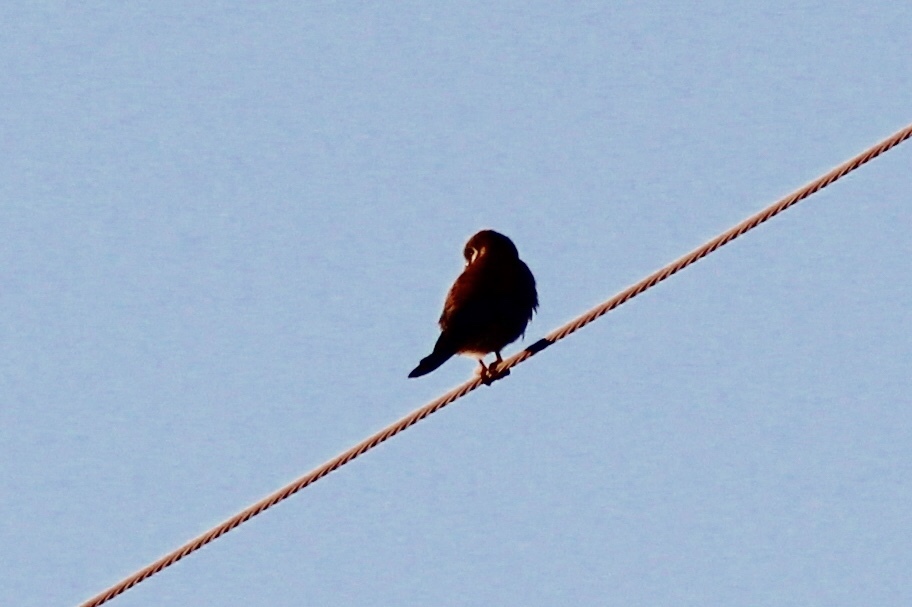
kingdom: Animalia
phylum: Chordata
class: Aves
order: Falconiformes
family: Falconidae
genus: Falco
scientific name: Falco sparverius
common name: American kestrel
